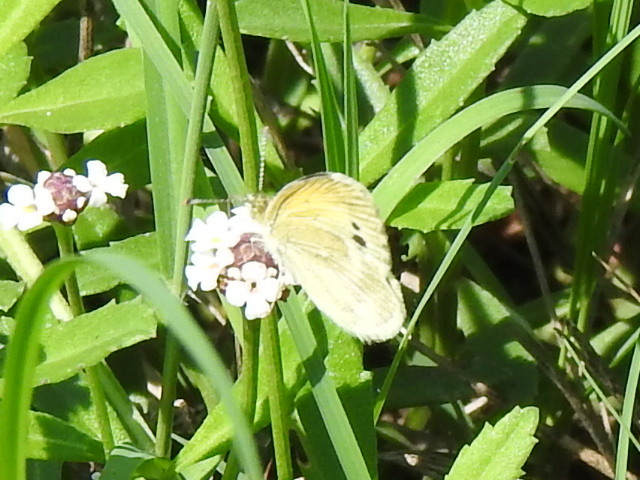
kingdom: Animalia
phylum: Arthropoda
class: Insecta
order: Lepidoptera
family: Pieridae
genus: Nathalis
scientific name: Nathalis iole
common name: Dainty sulphur
